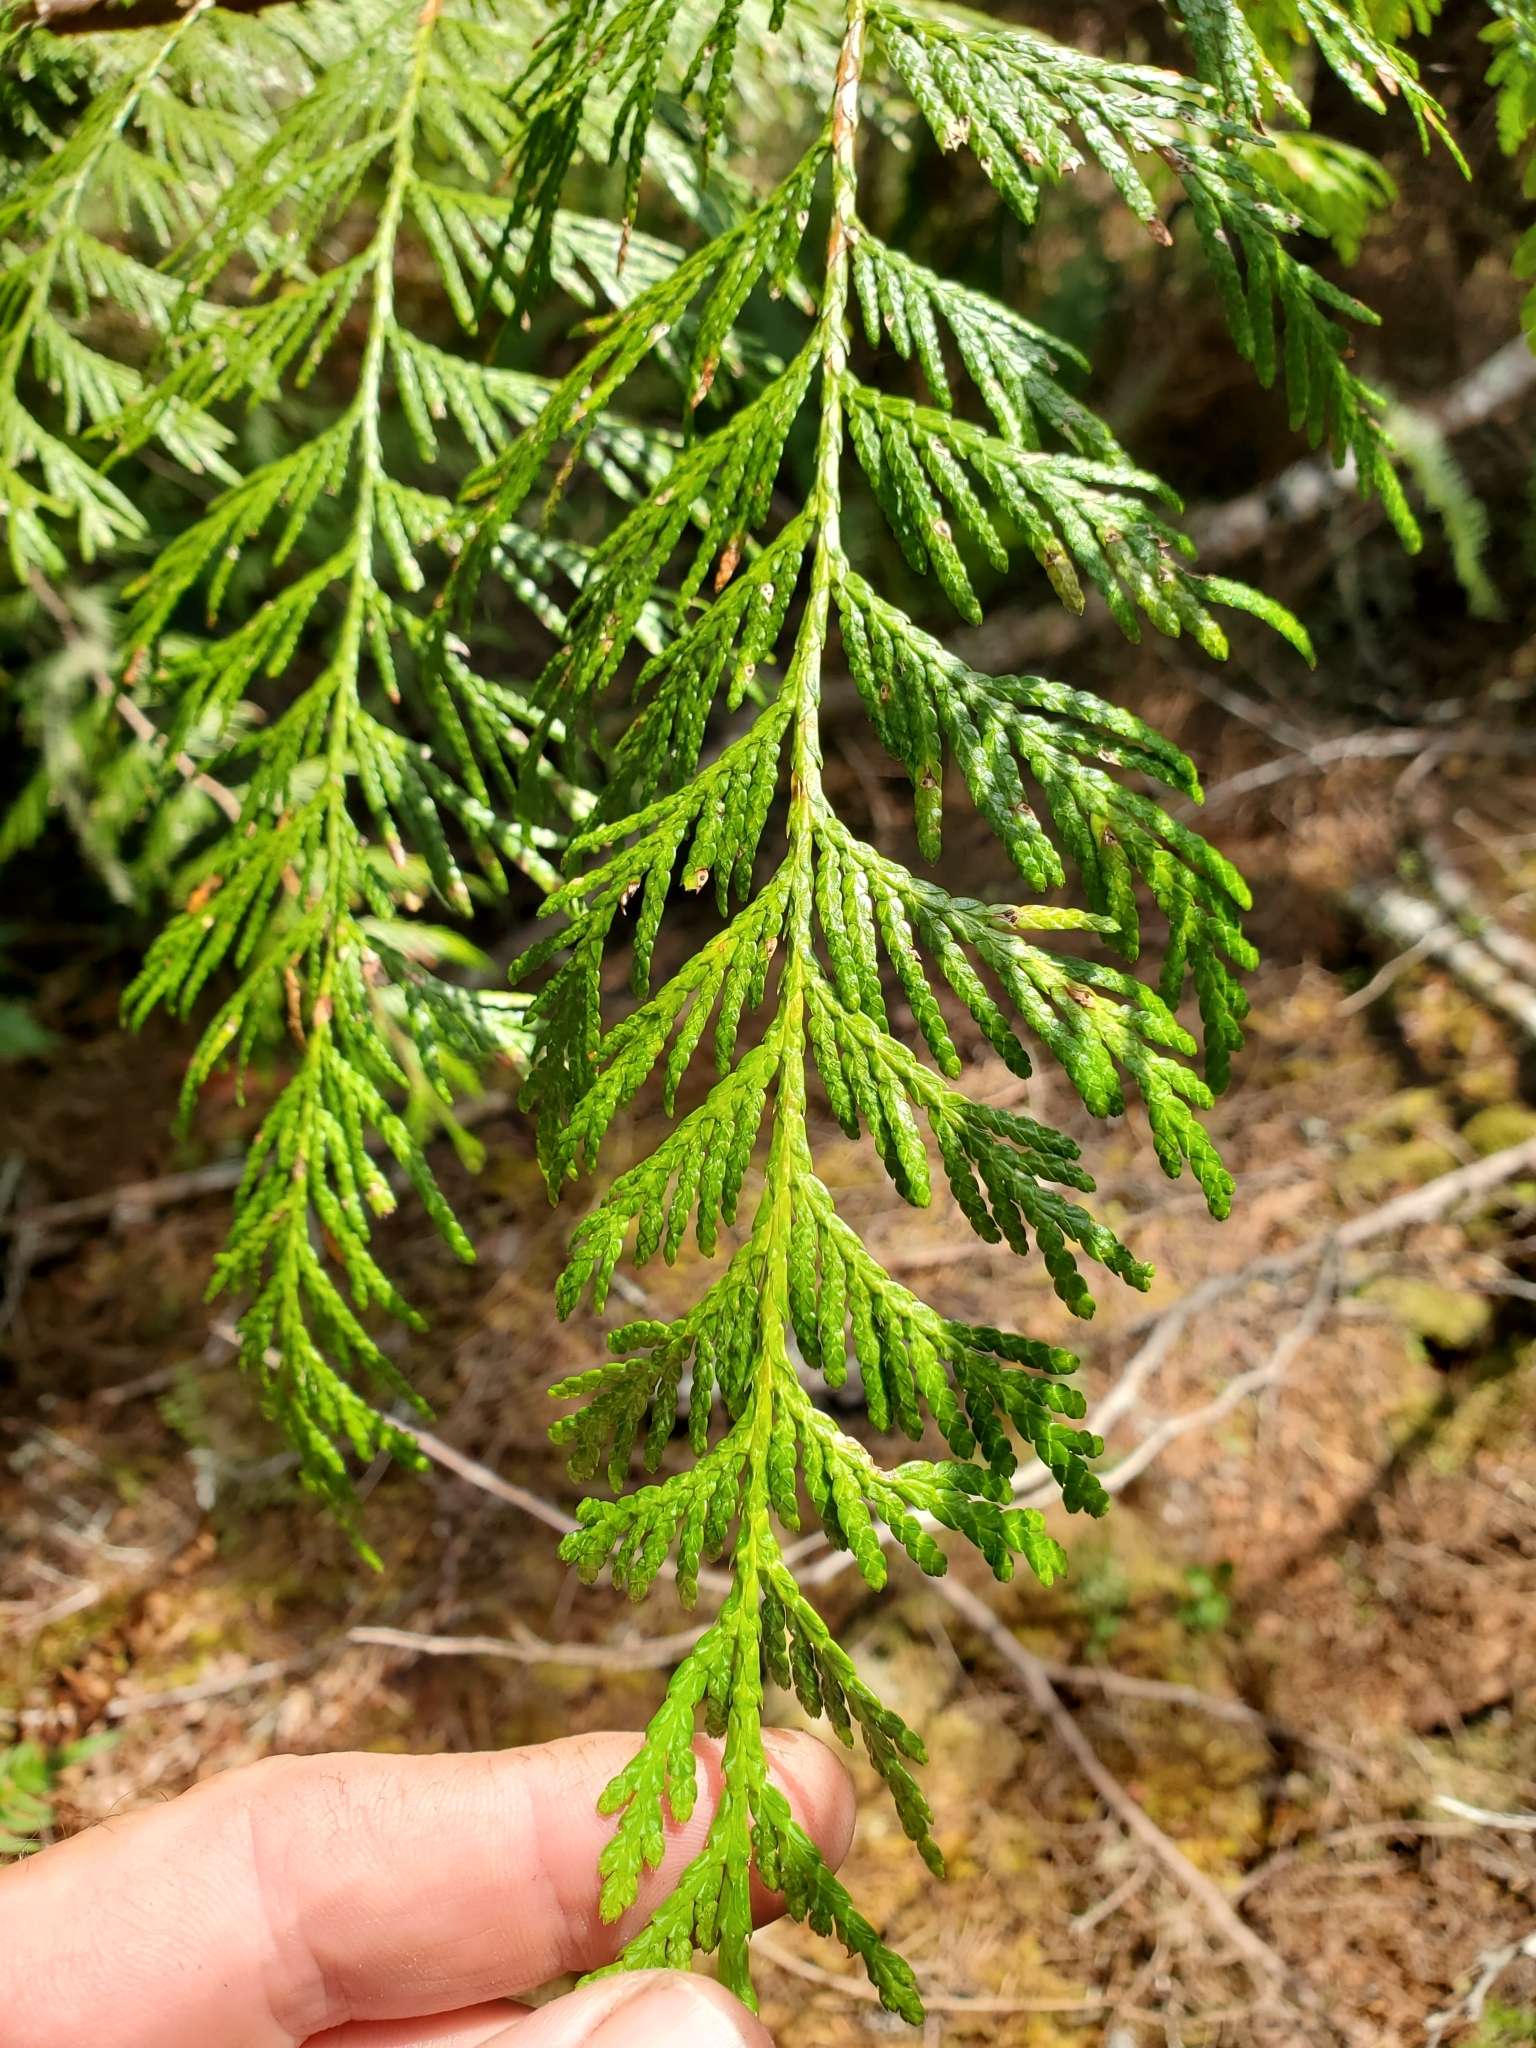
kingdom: Plantae
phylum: Tracheophyta
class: Pinopsida
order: Pinales
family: Cupressaceae
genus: Thuja
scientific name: Thuja plicata
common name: Western red-cedar
